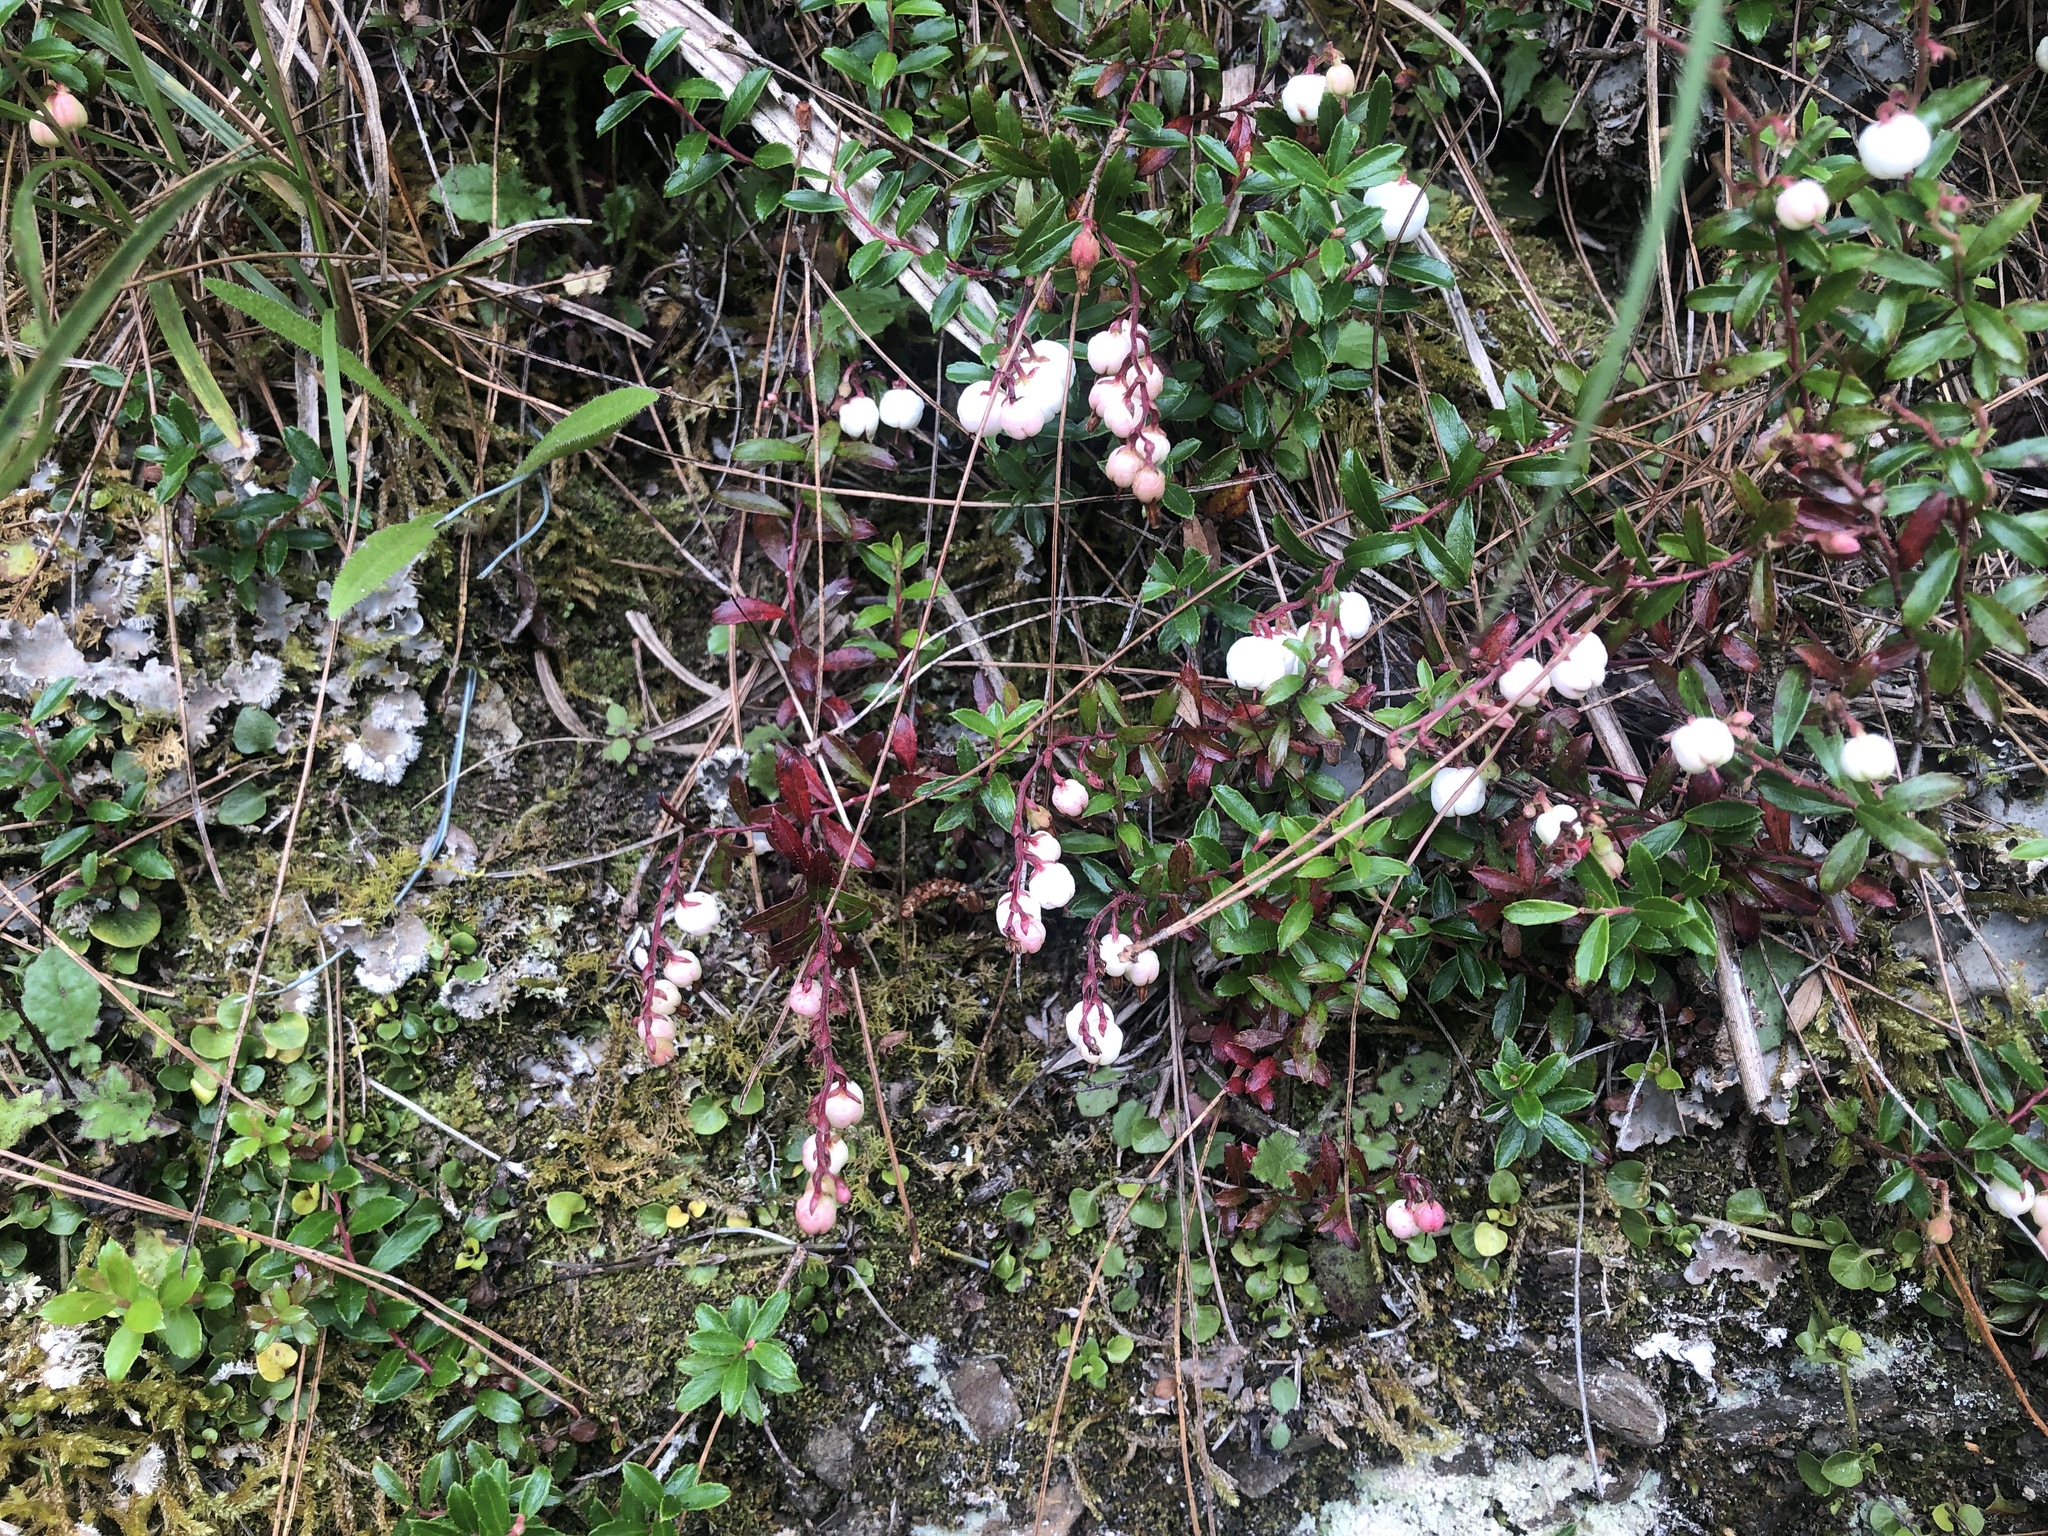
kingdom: Plantae
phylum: Tracheophyta
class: Magnoliopsida
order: Ericales
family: Ericaceae
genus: Gaultheria
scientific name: Gaultheria borneensis
